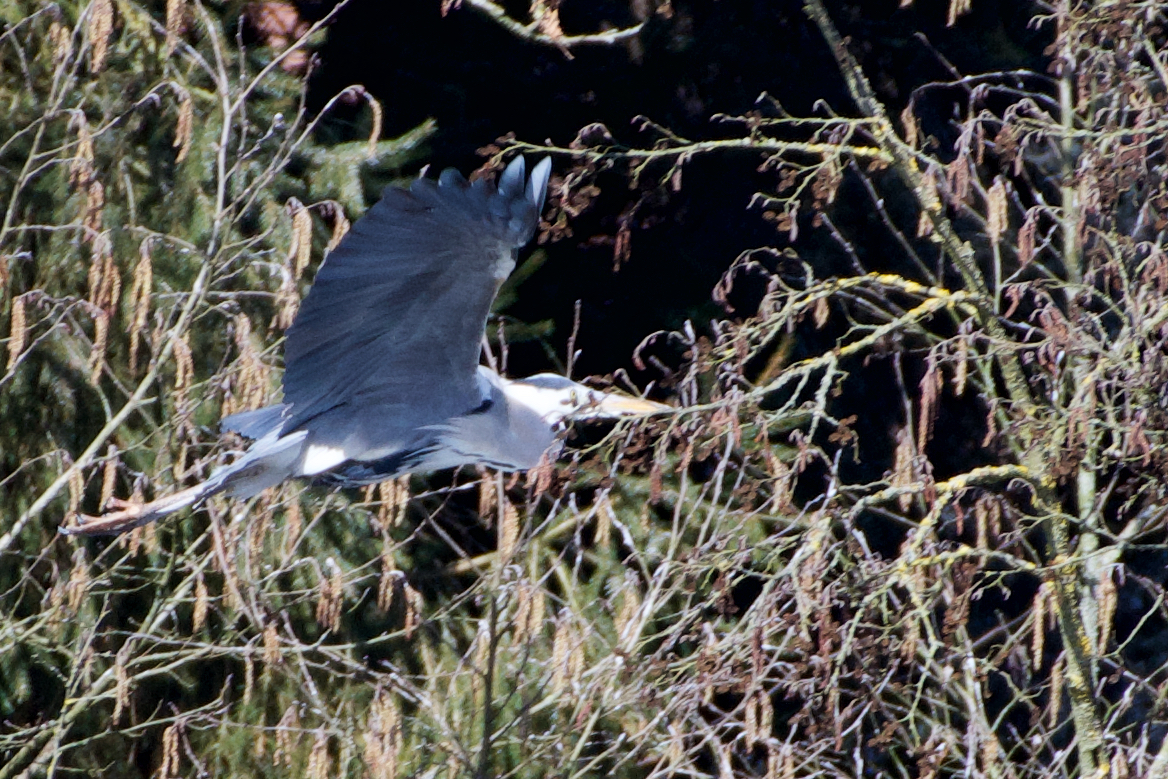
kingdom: Animalia
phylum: Chordata
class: Aves
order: Pelecaniformes
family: Ardeidae
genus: Ardea
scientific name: Ardea cinerea
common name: Grey heron
